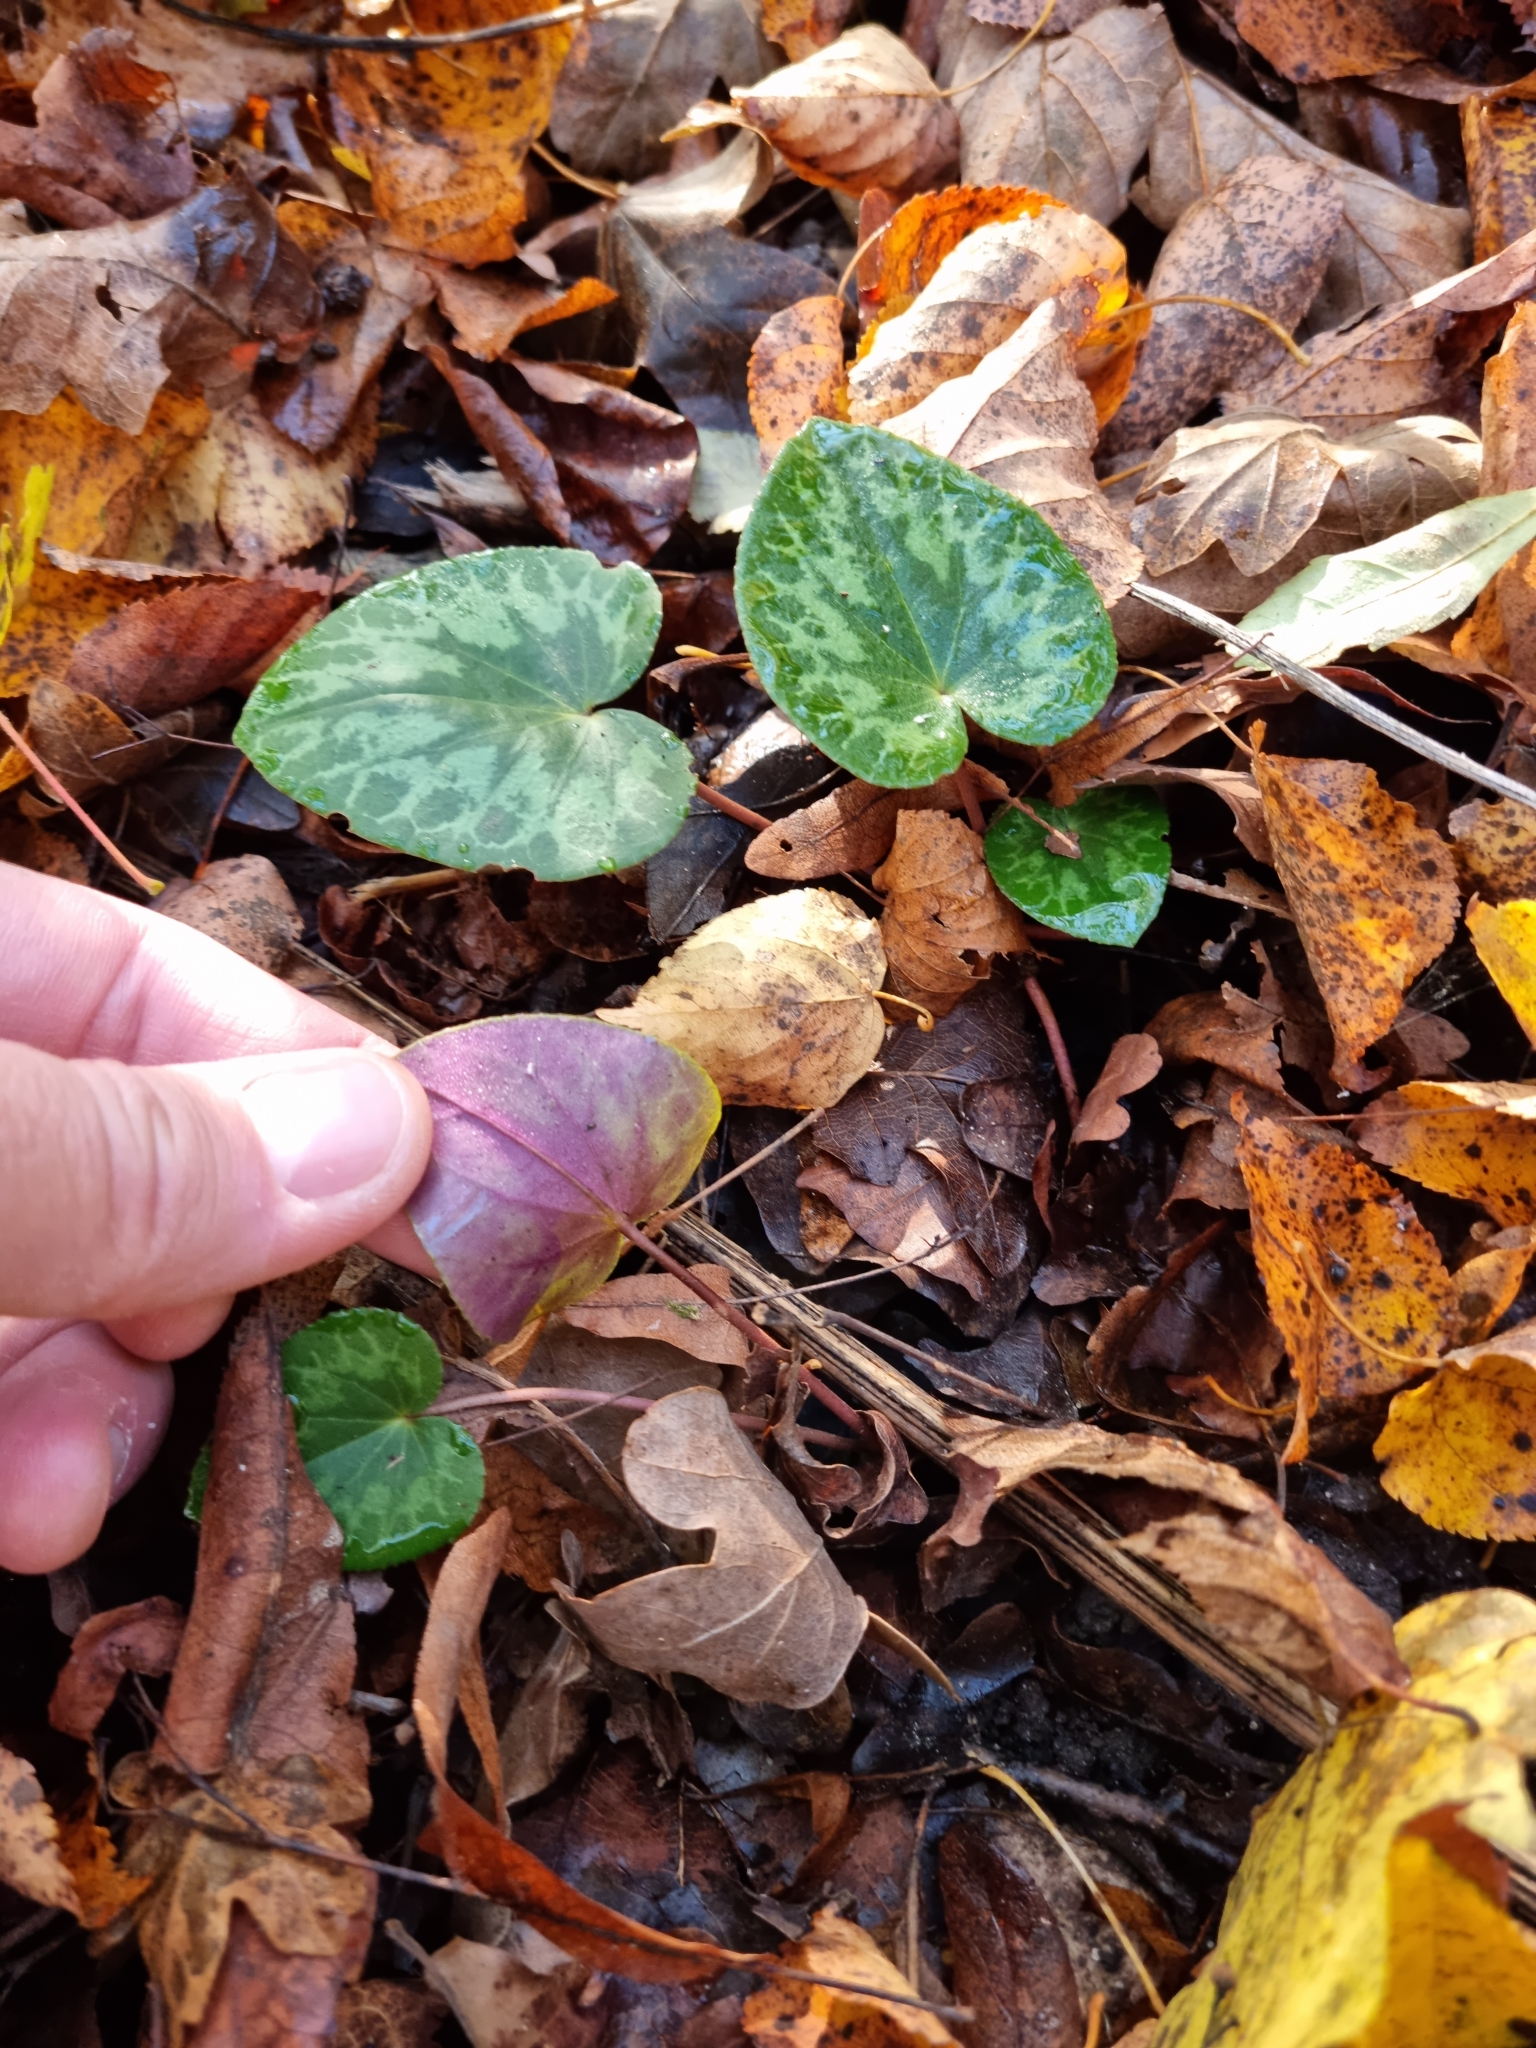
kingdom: Plantae
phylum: Tracheophyta
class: Magnoliopsida
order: Ericales
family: Primulaceae
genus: Cyclamen
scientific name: Cyclamen purpurascens
